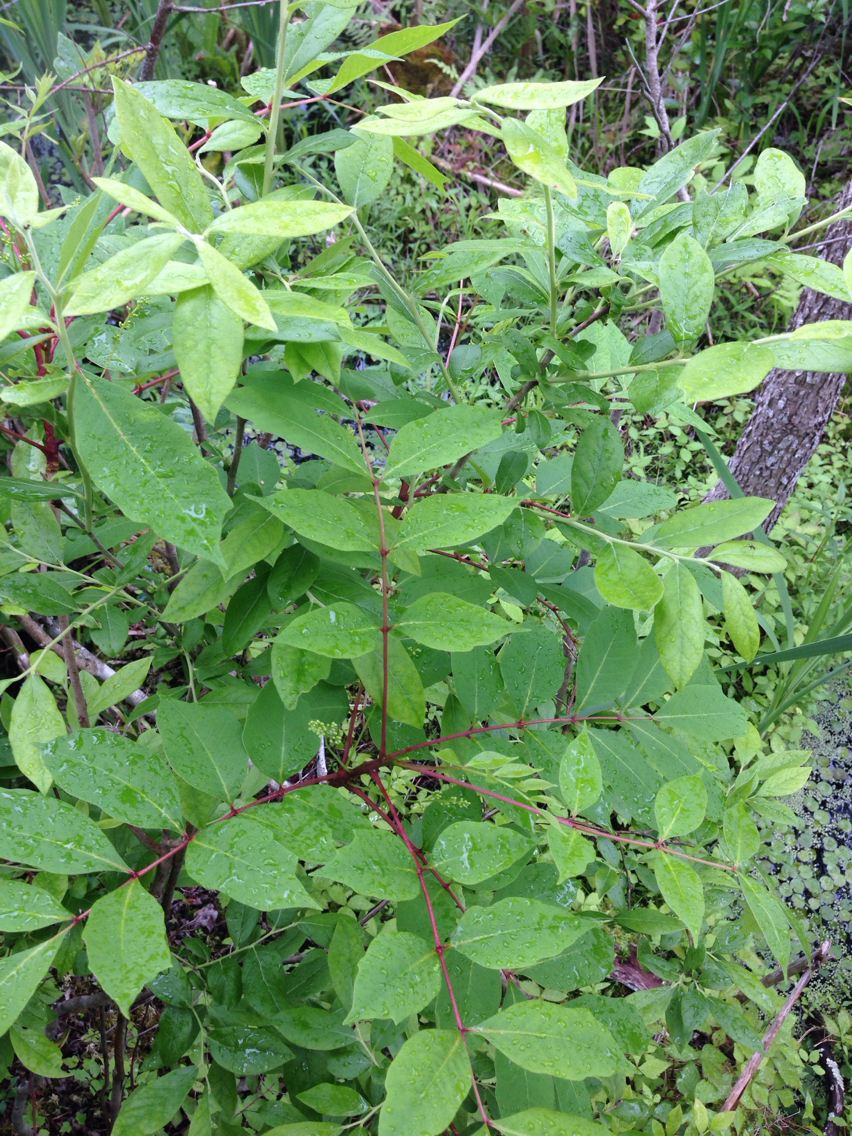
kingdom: Plantae
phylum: Tracheophyta
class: Magnoliopsida
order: Sapindales
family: Anacardiaceae
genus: Toxicodendron
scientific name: Toxicodendron vernix
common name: Poison sumac
